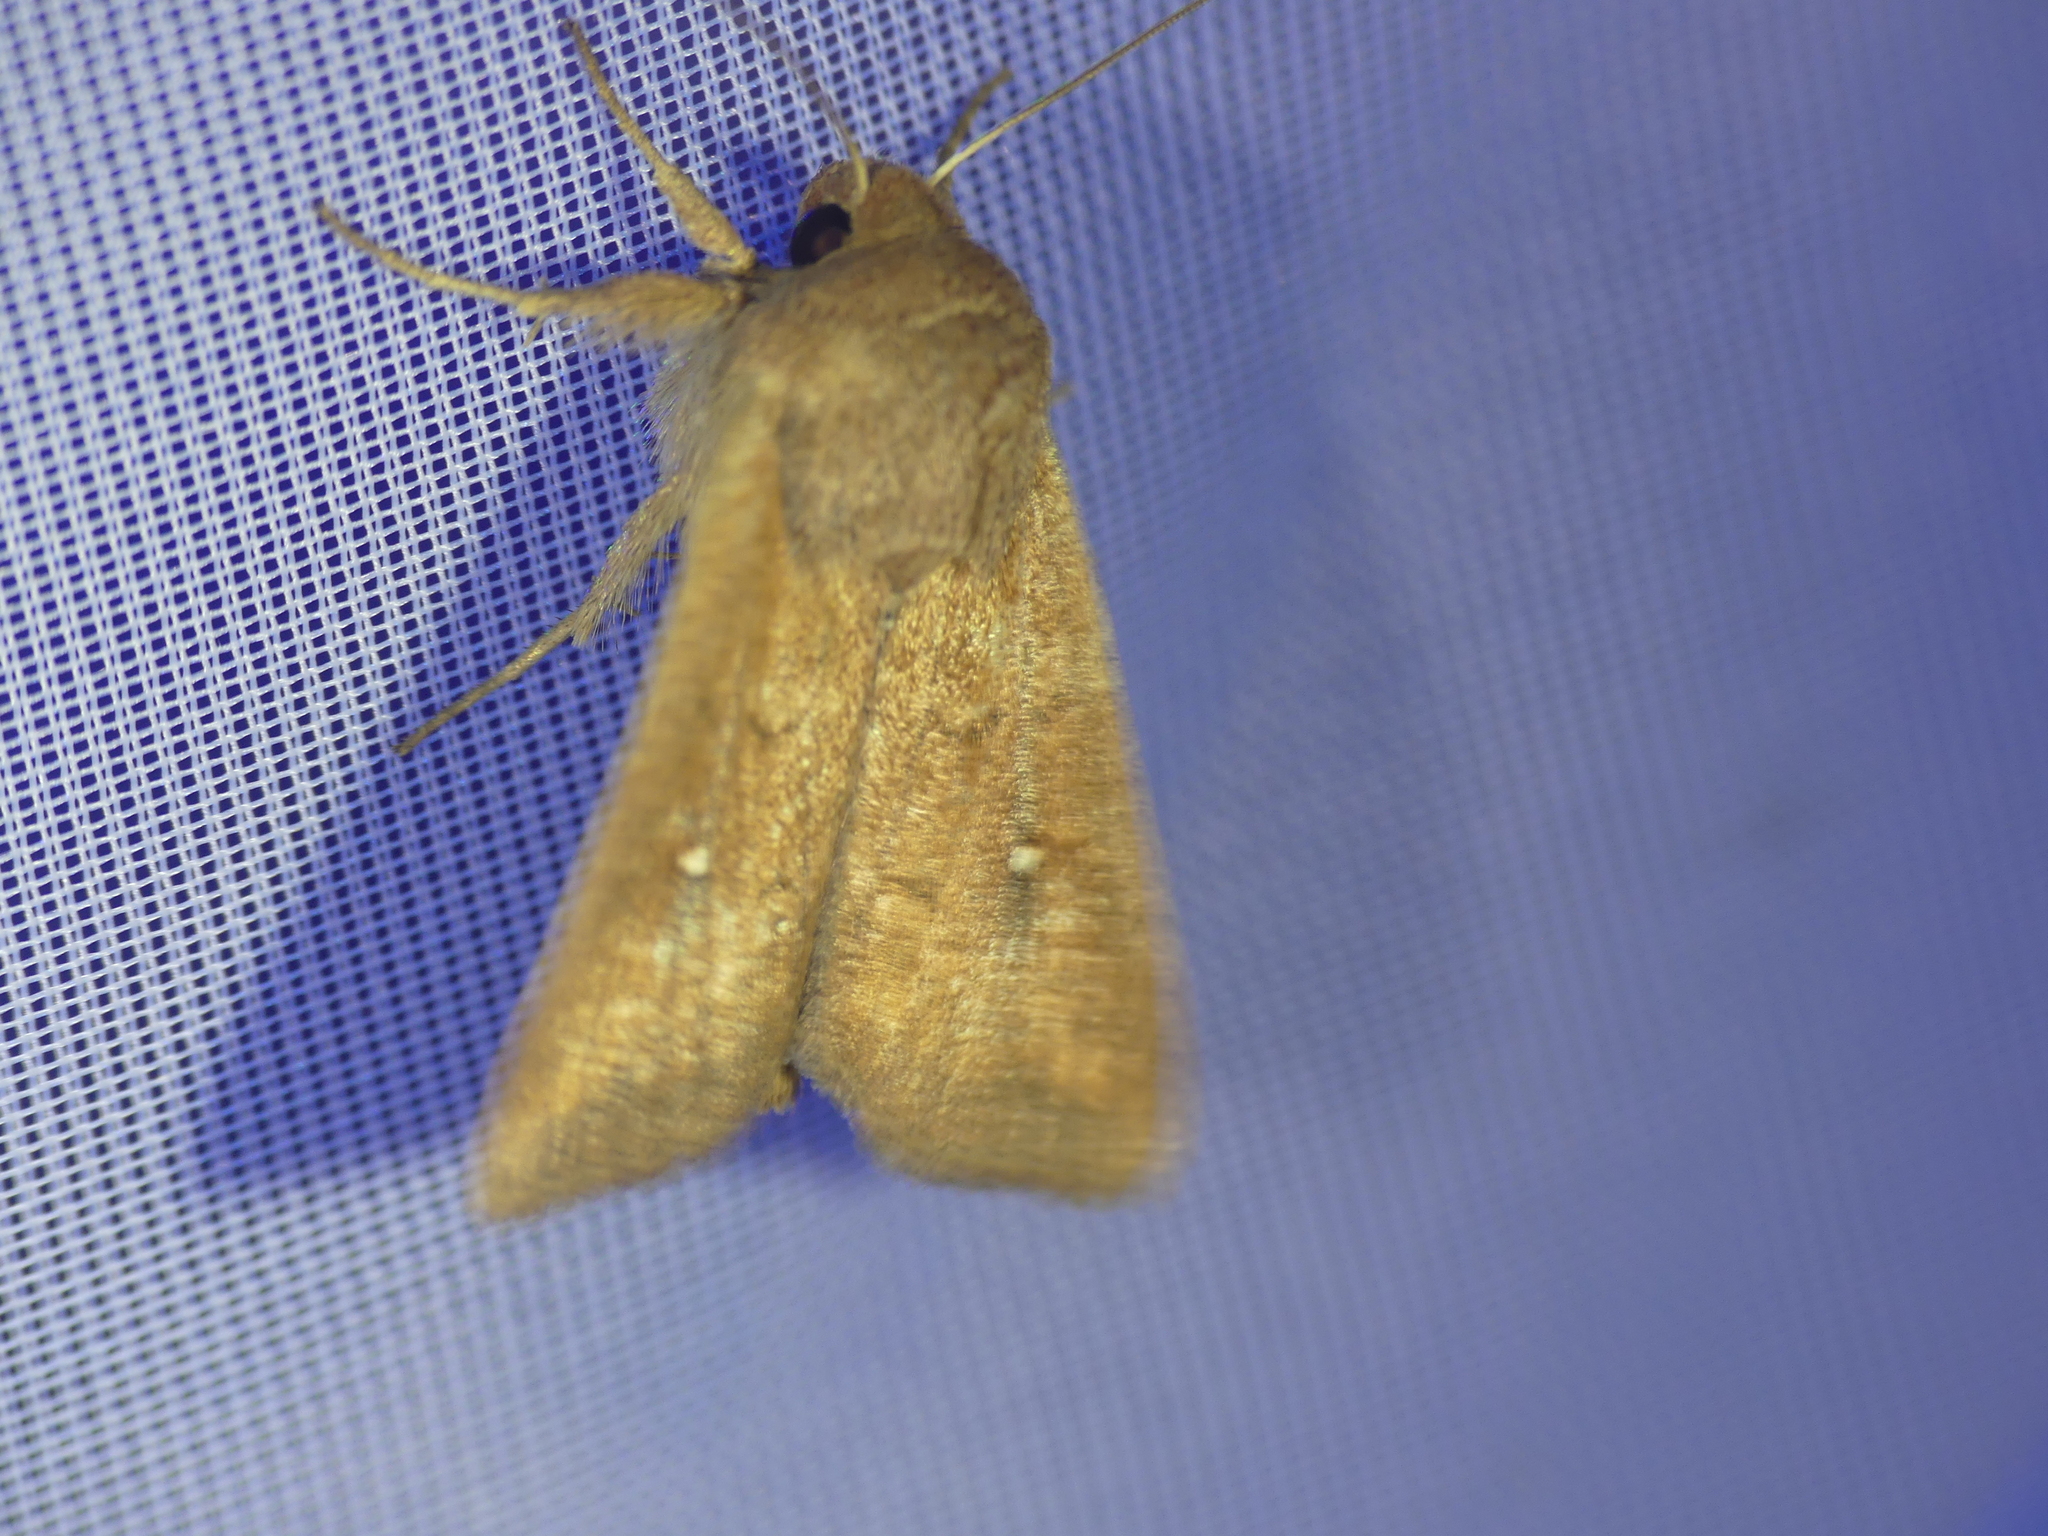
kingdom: Animalia
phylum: Arthropoda
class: Insecta
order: Lepidoptera
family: Noctuidae
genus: Mythimna
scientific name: Mythimna albipuncta
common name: White-point
